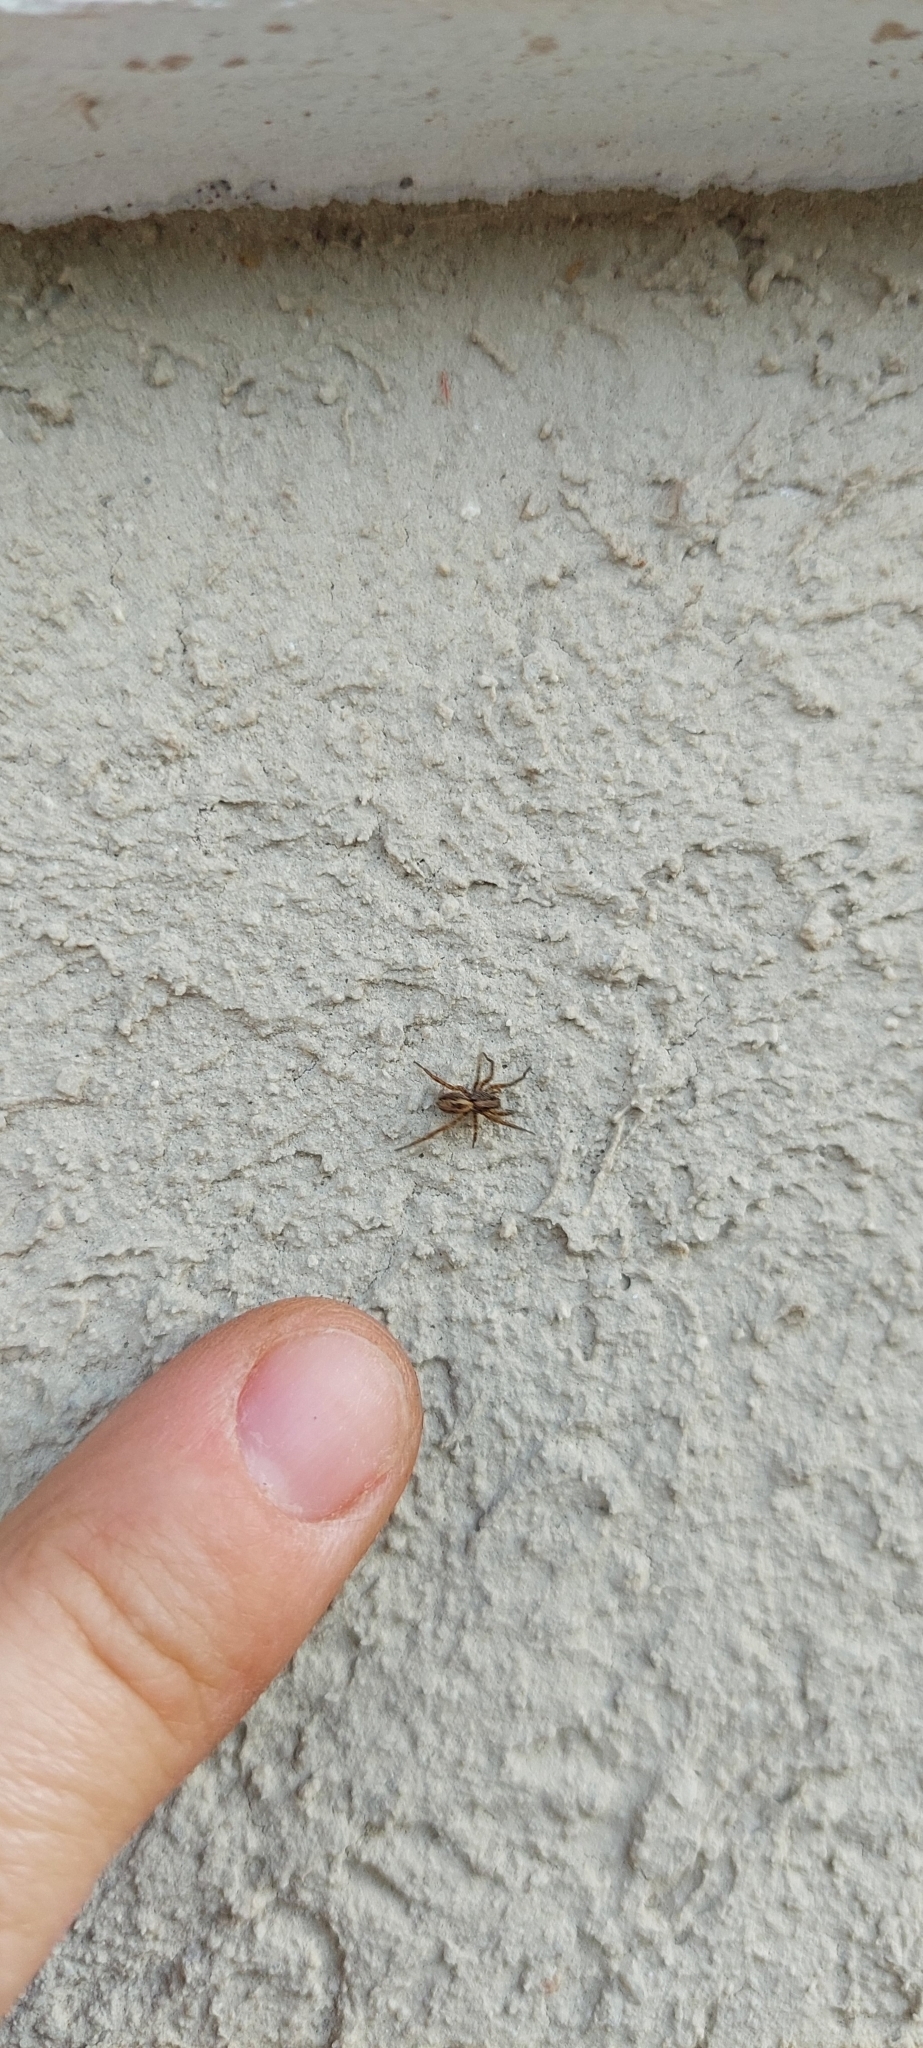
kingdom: Animalia
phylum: Arthropoda
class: Arachnida
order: Araneae
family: Lycosidae
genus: Hogna
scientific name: Hogna birabeni
